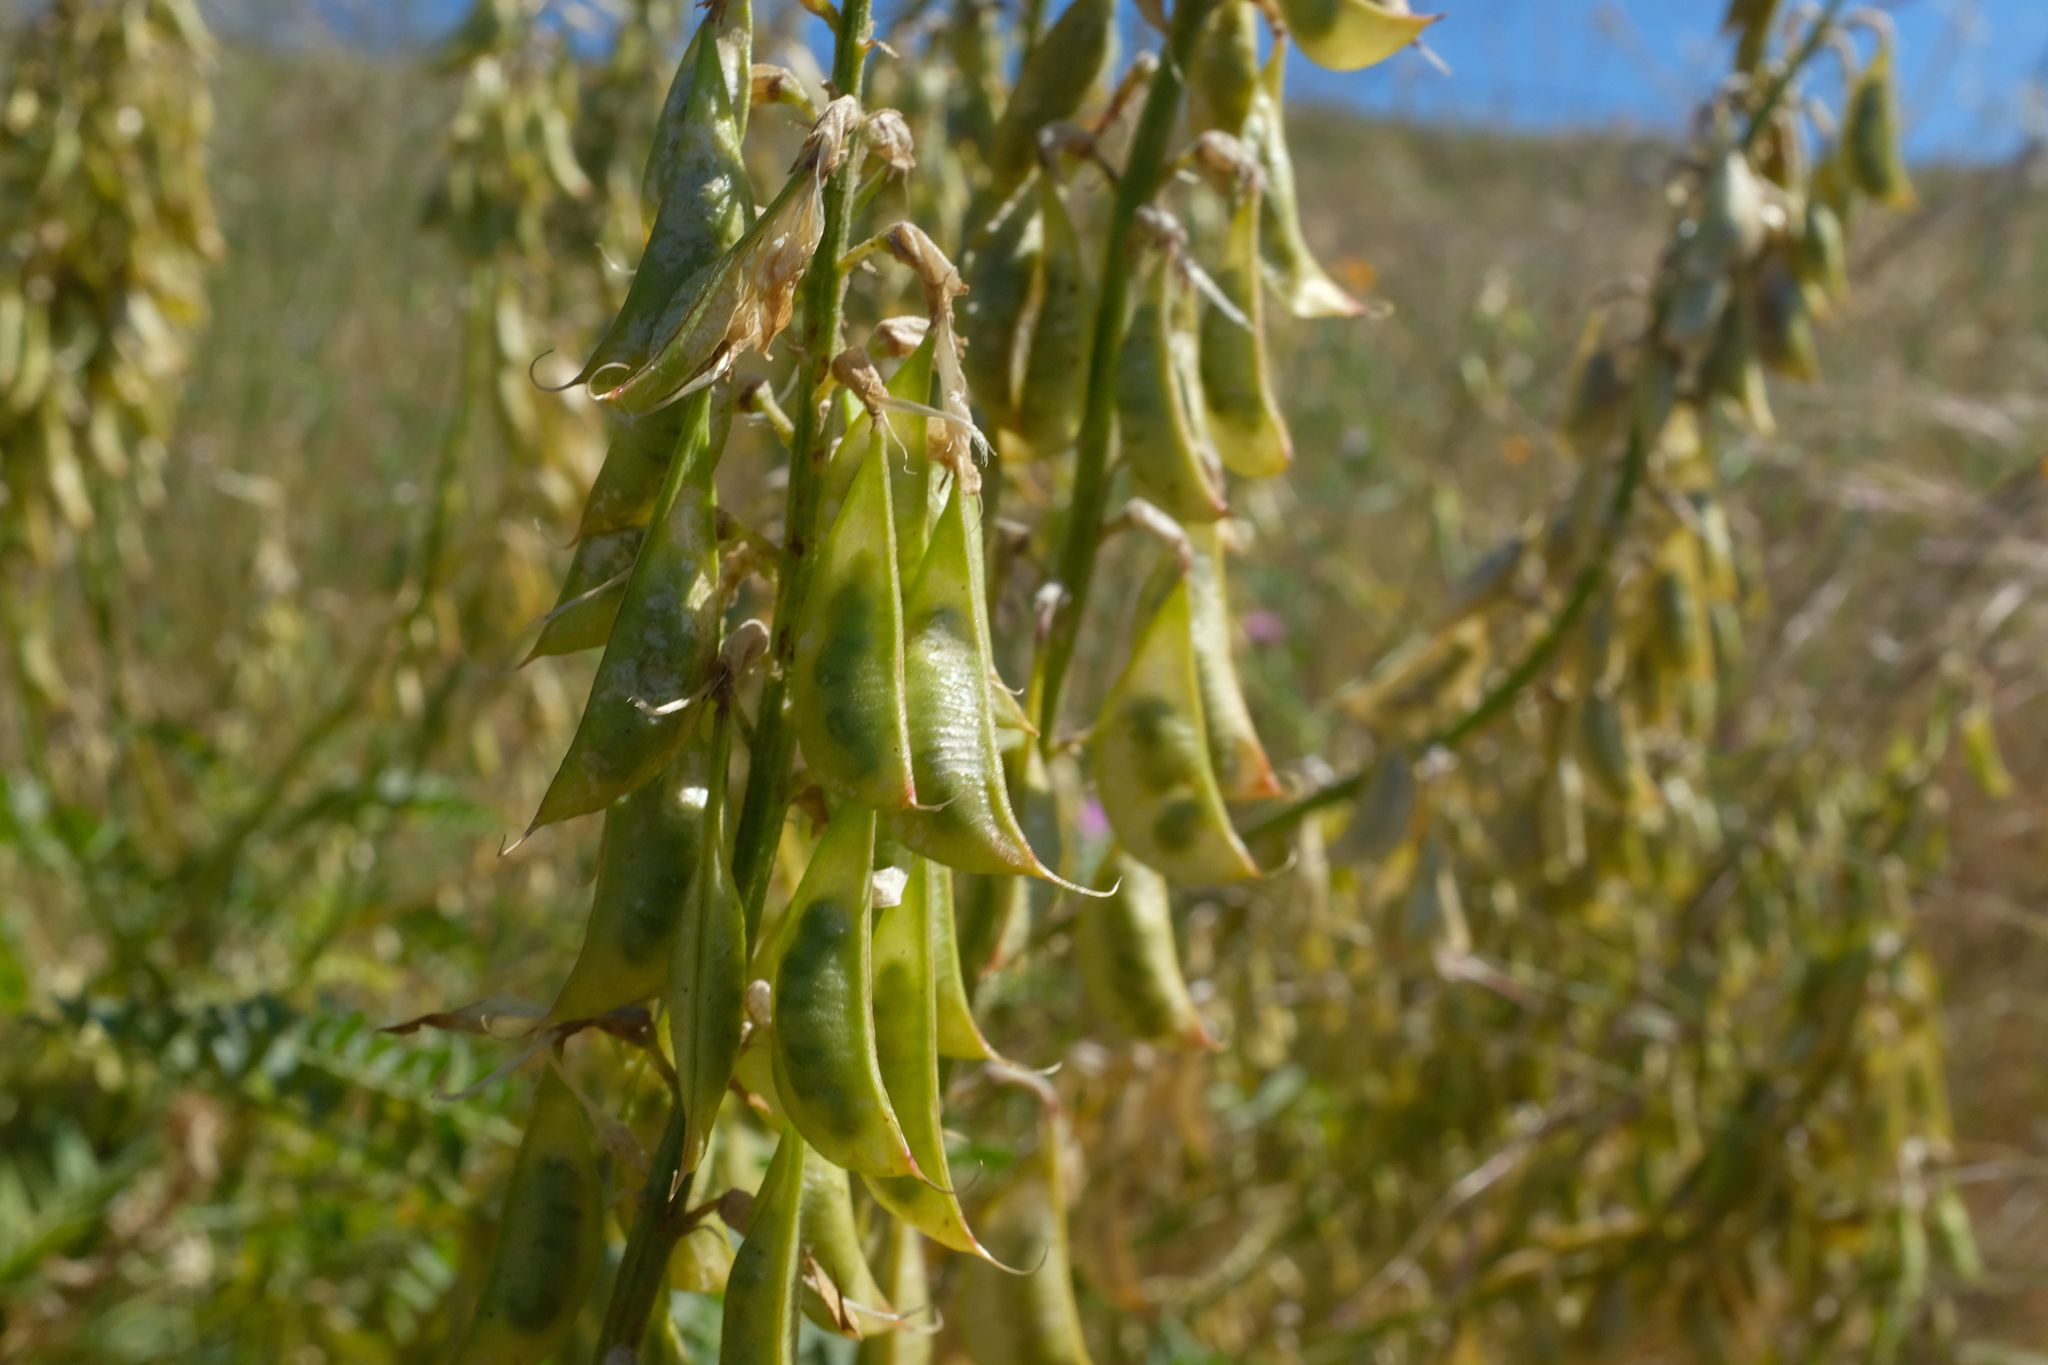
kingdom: Plantae
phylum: Tracheophyta
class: Magnoliopsida
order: Fabales
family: Fabaceae
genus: Astragalus
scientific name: Astragalus oxyphysus
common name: Stanislaus milk-vetch
